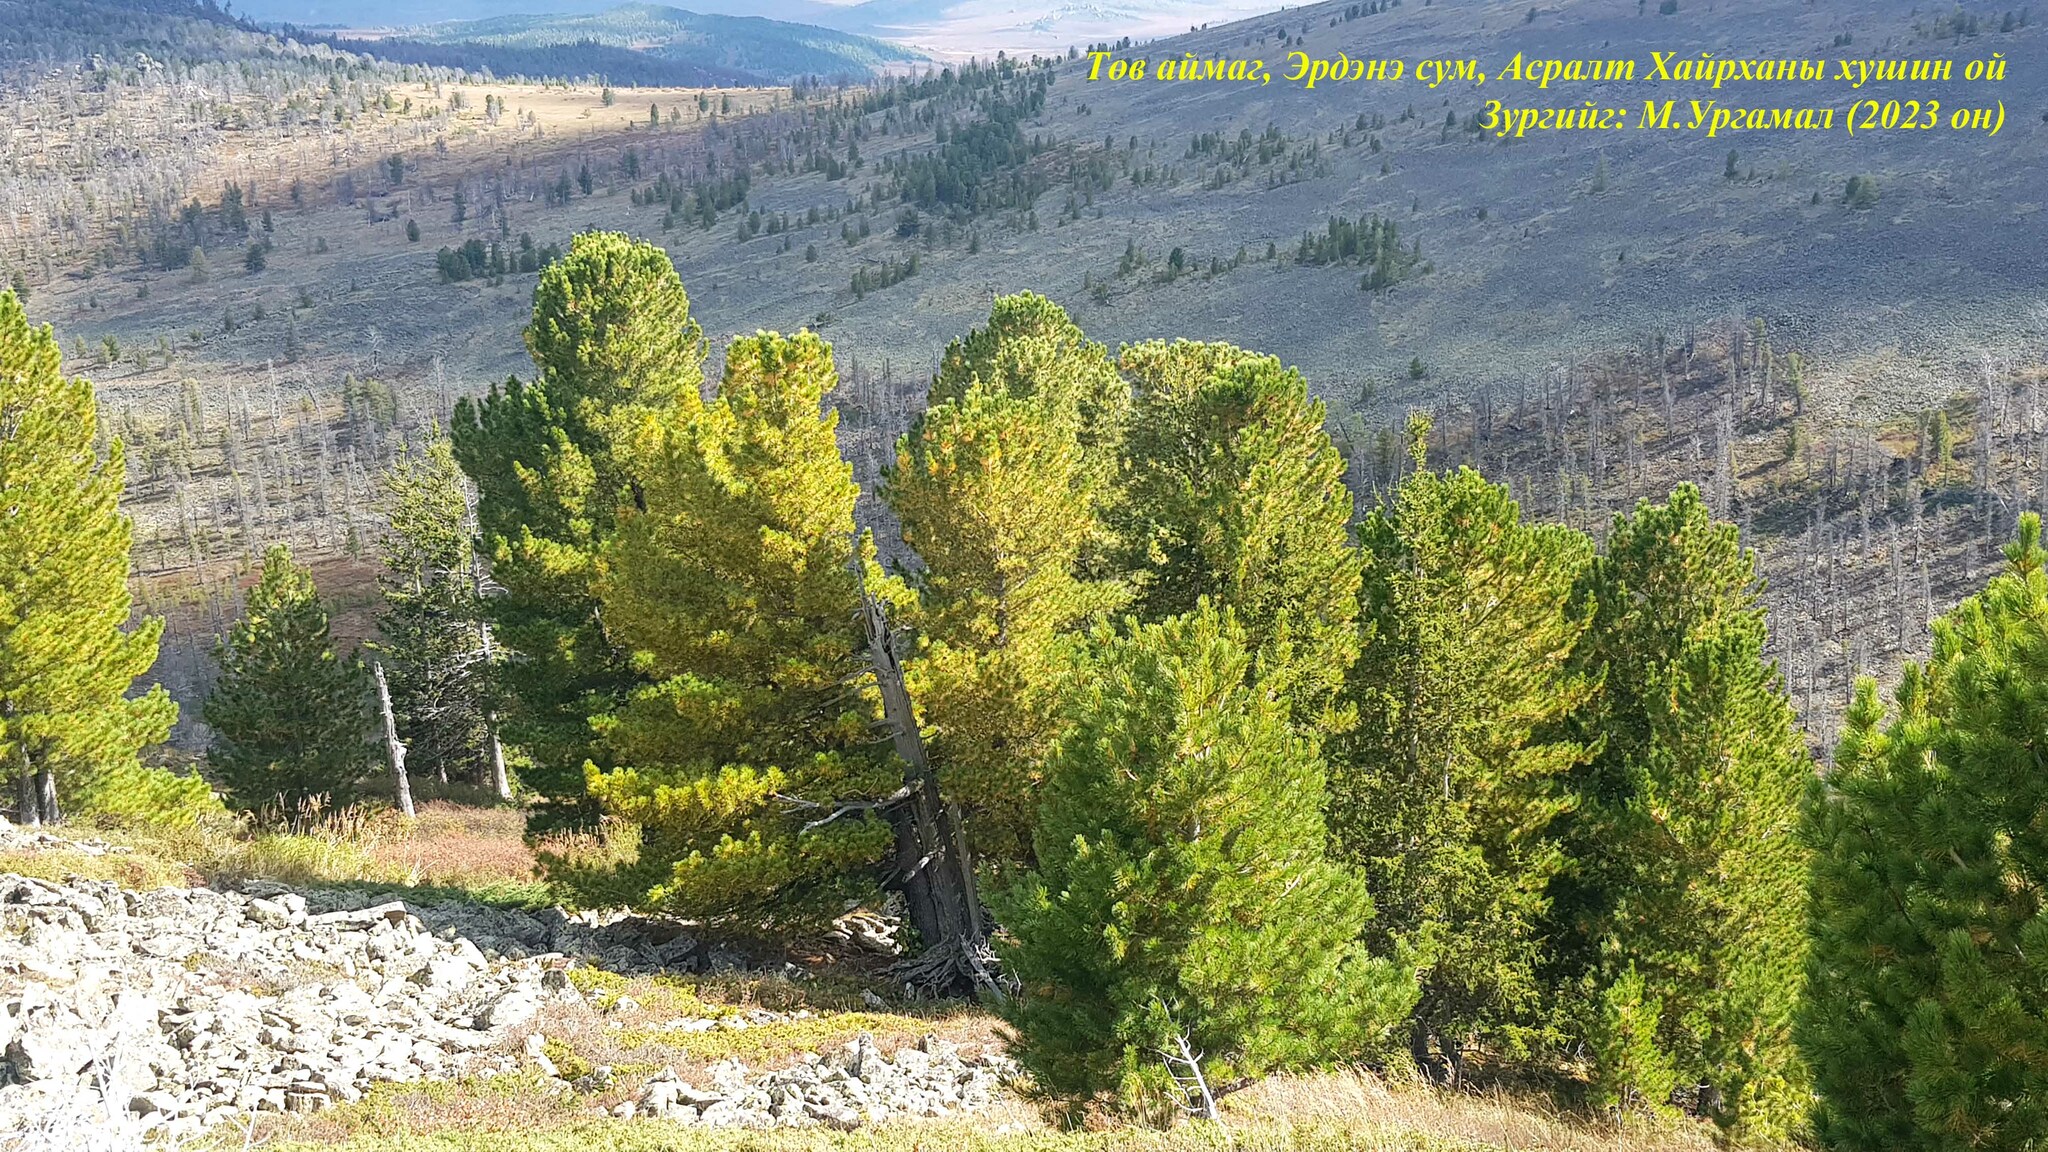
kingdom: Plantae
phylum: Tracheophyta
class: Pinopsida
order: Pinales
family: Pinaceae
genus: Pinus
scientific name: Pinus sibirica
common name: Siberian pine
